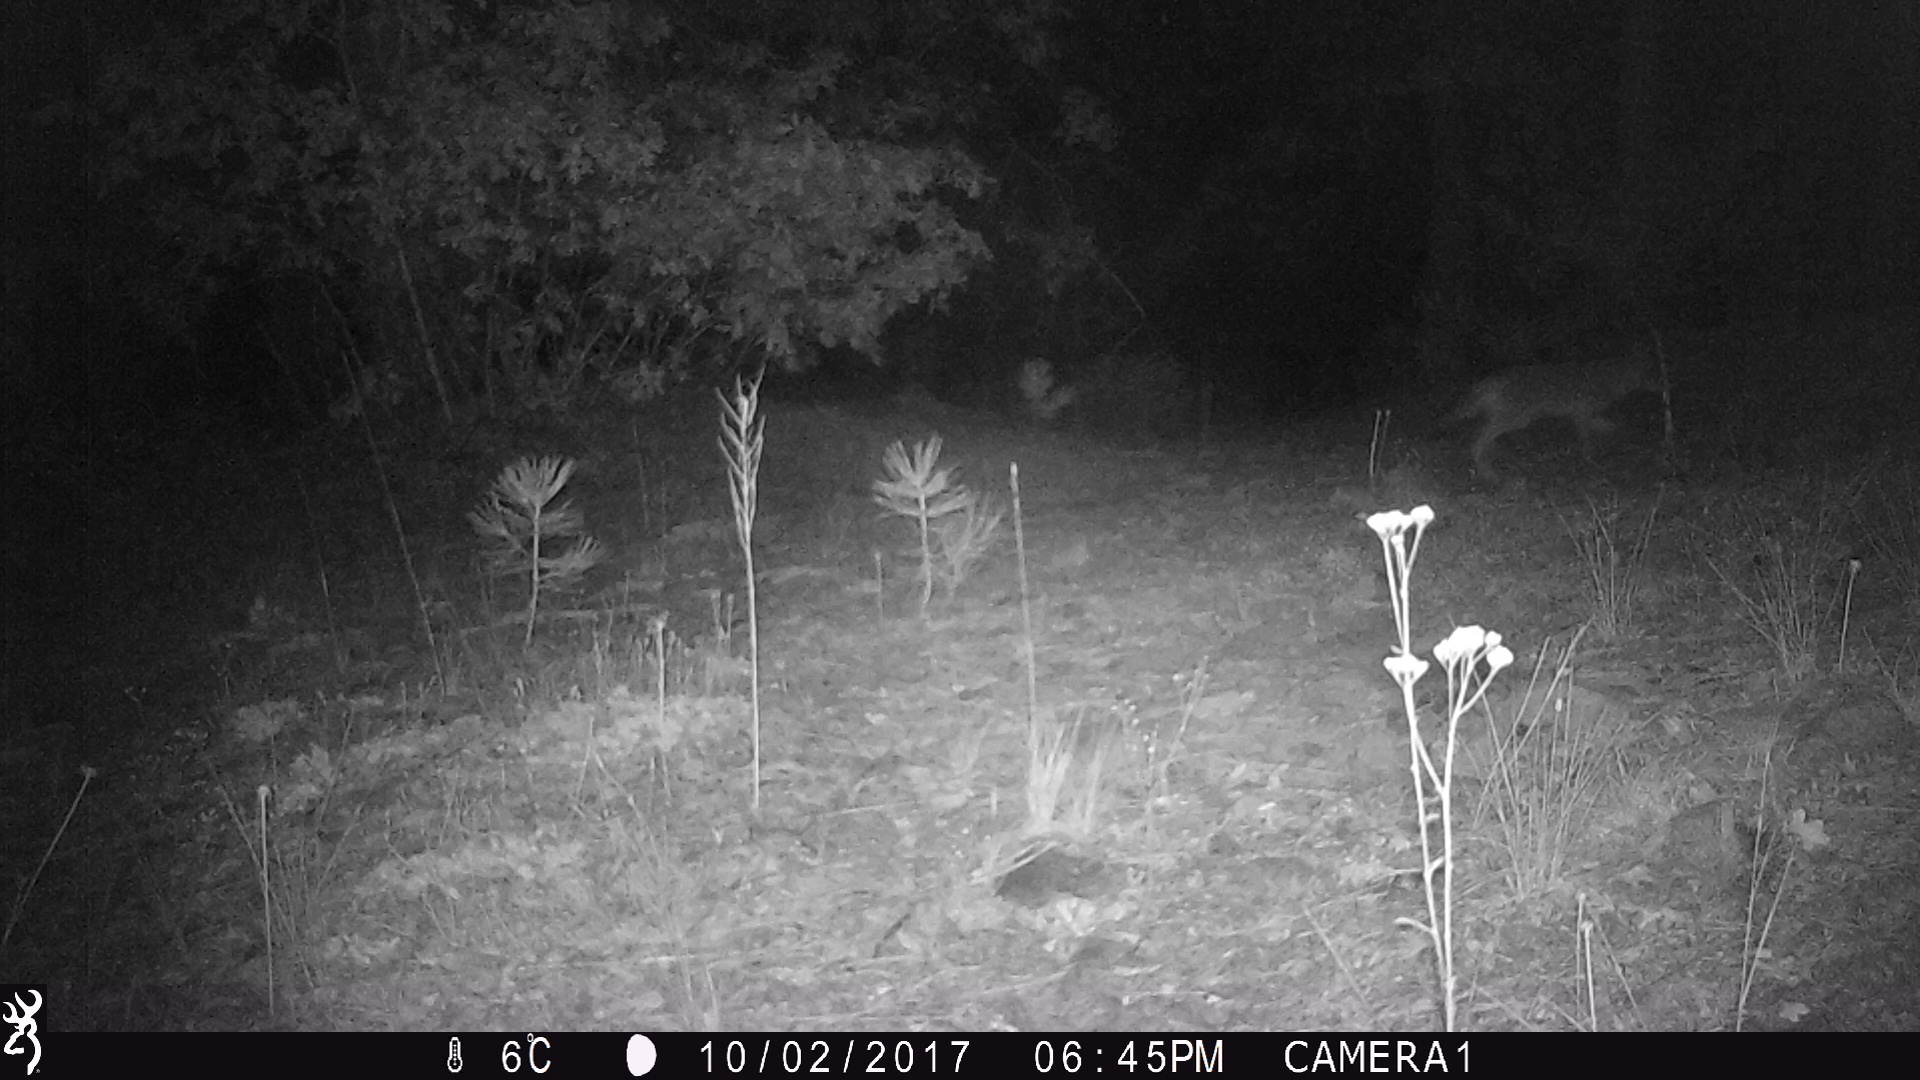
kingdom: Animalia
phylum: Chordata
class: Mammalia
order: Carnivora
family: Canidae
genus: Canis
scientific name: Canis latrans
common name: Coyote
